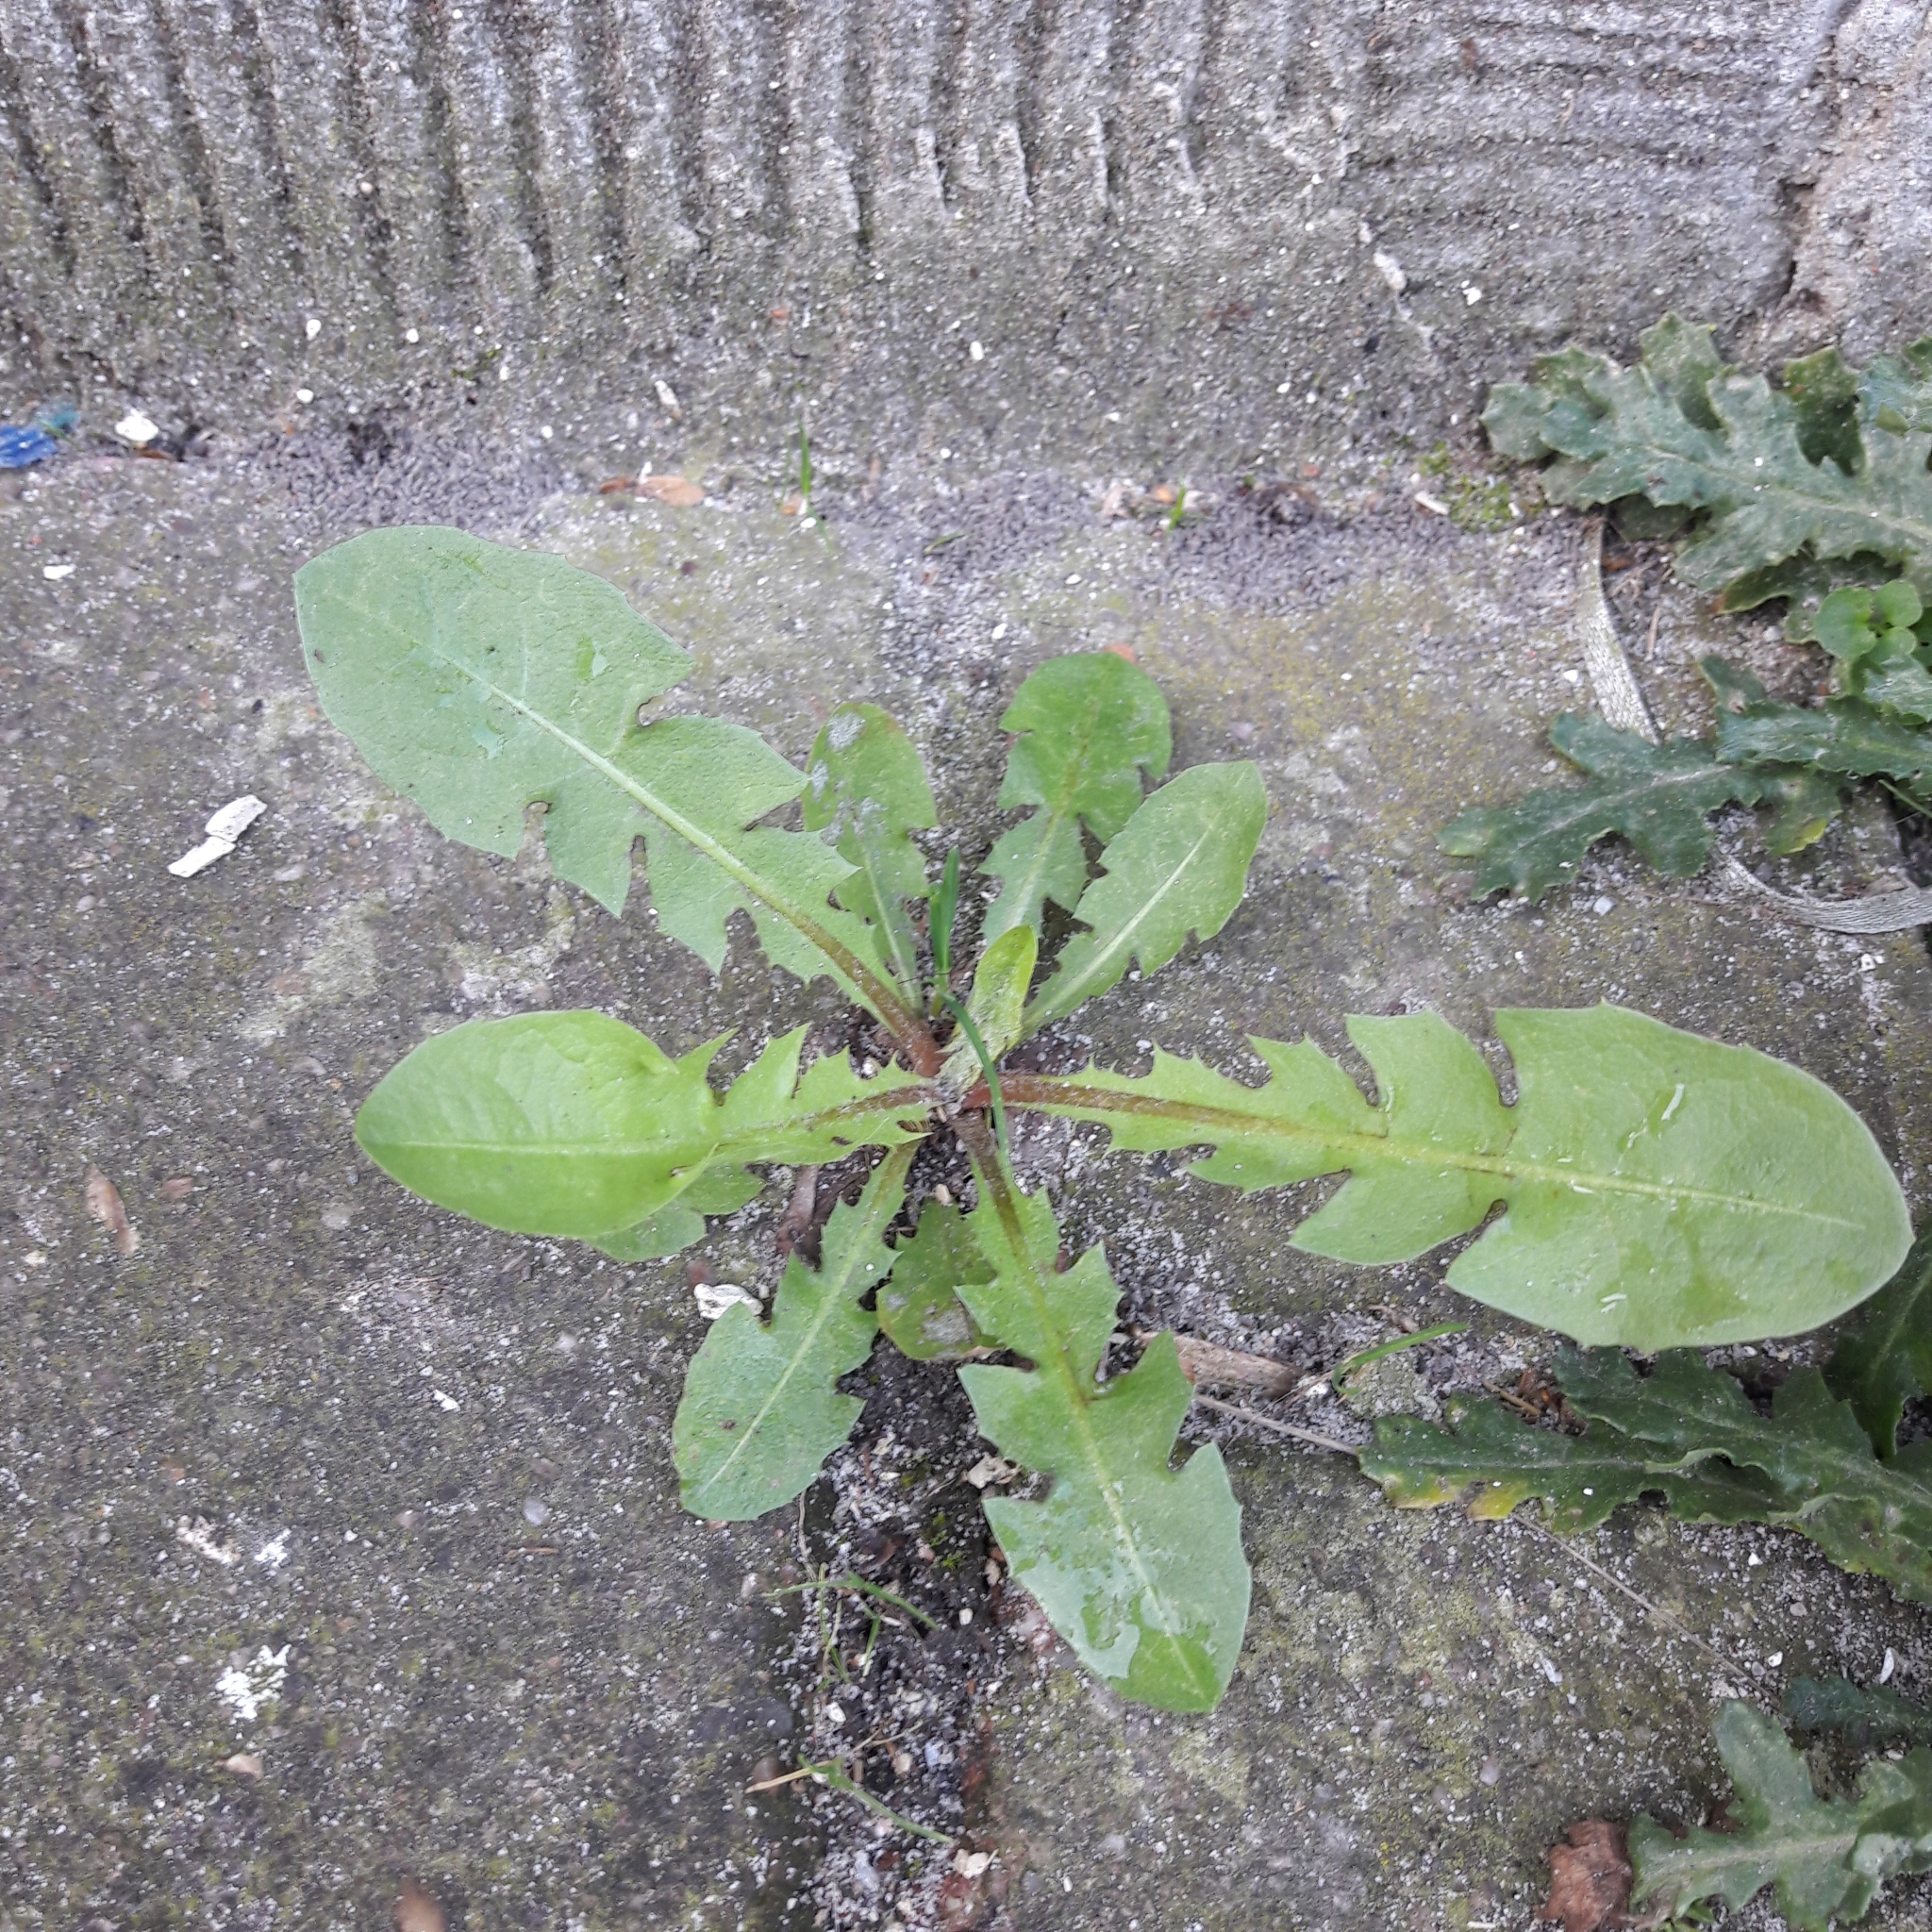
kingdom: Plantae
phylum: Tracheophyta
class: Magnoliopsida
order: Asterales
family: Asteraceae
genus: Taraxacum
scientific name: Taraxacum officinale
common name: Common dandelion
